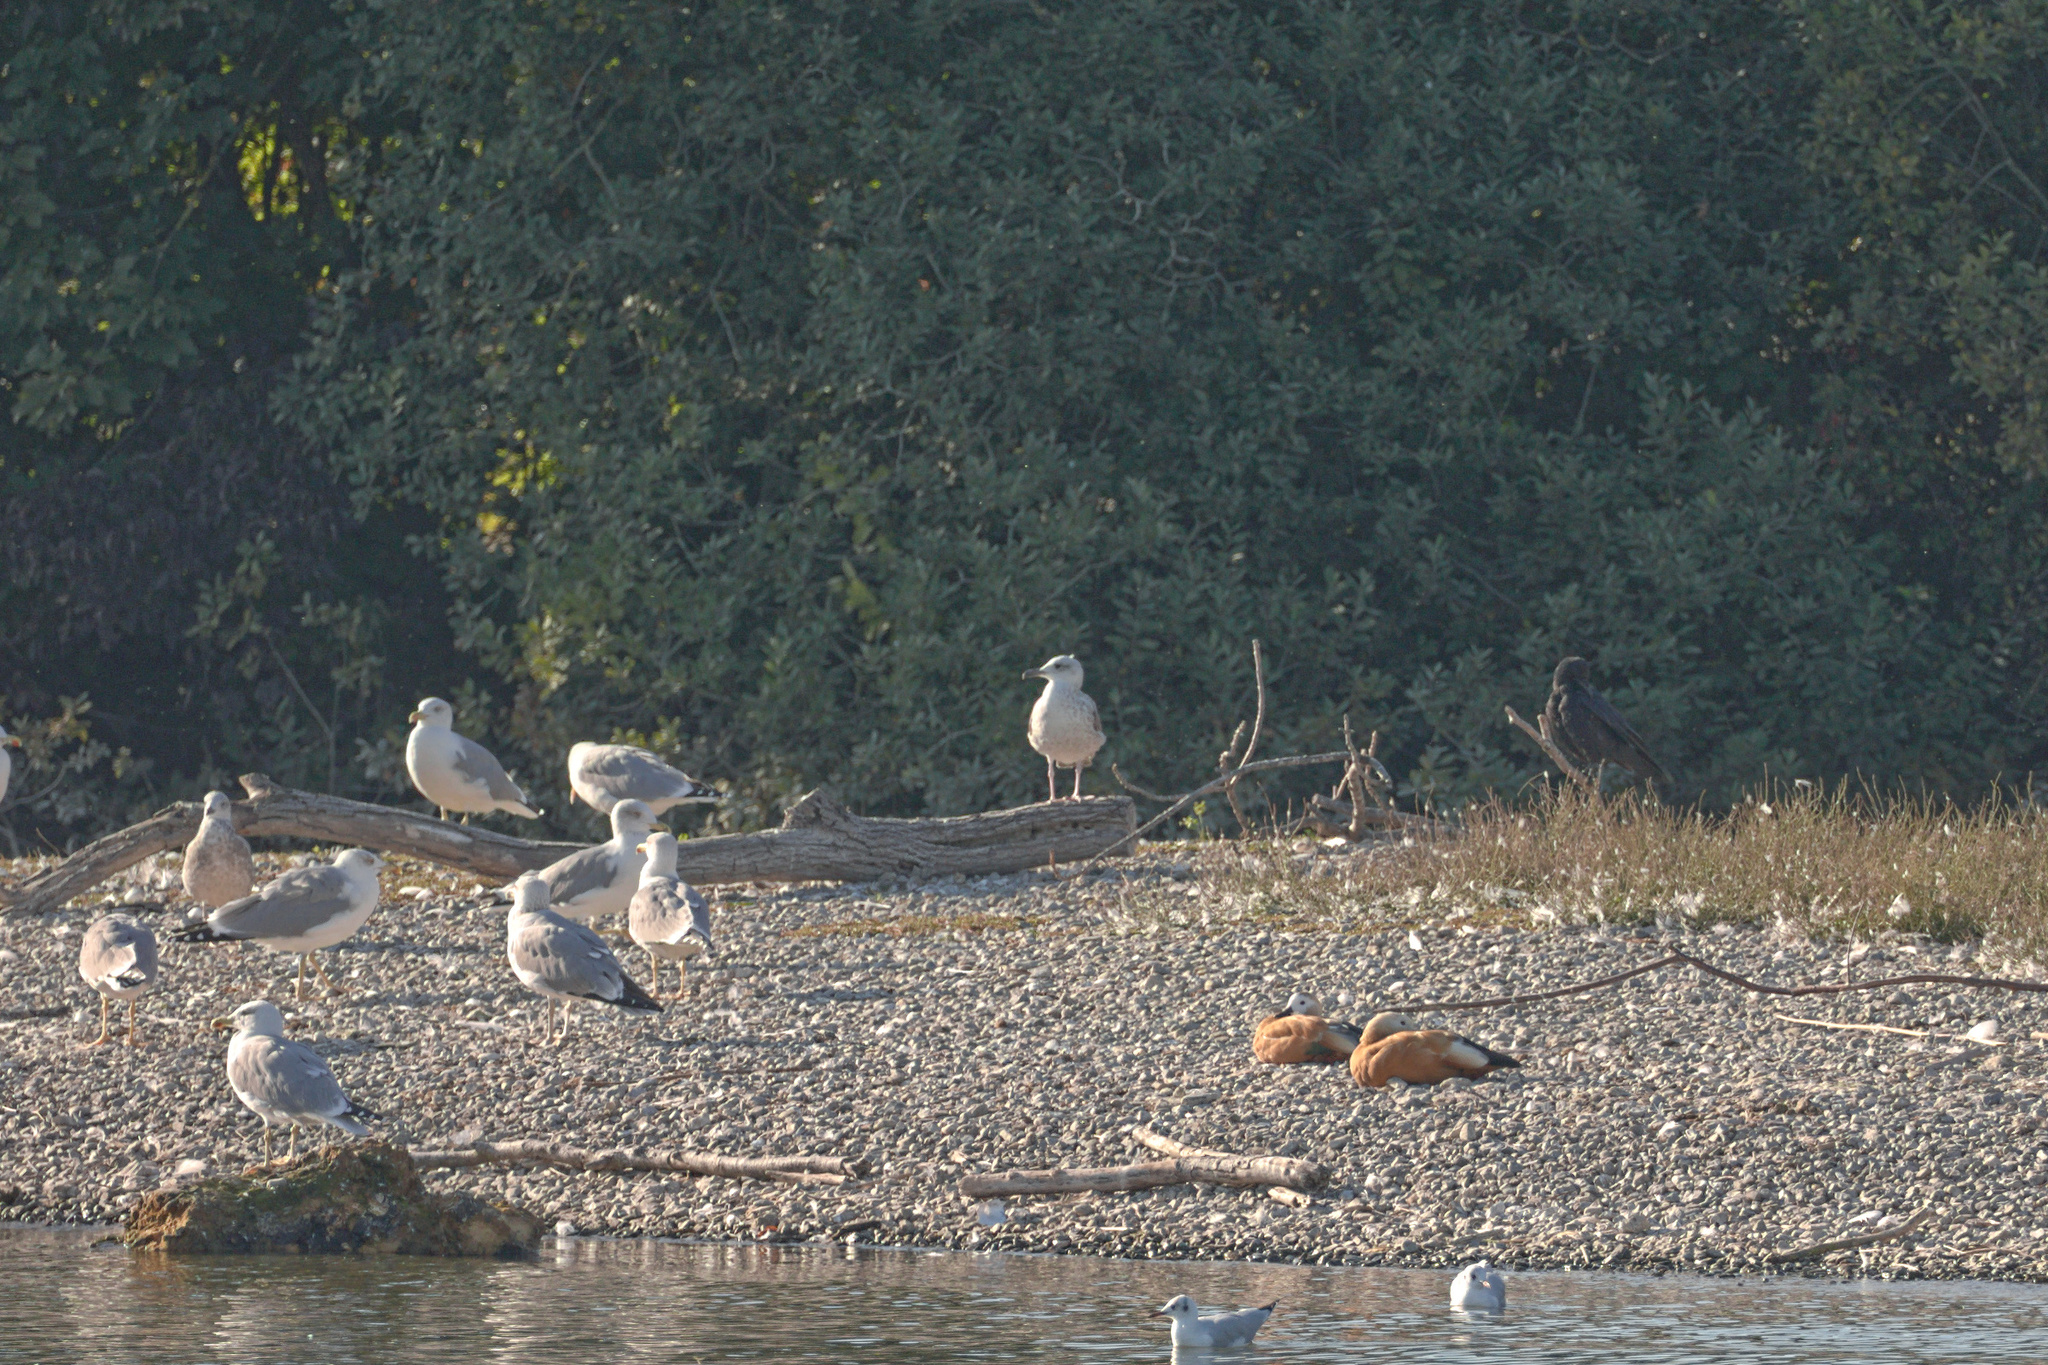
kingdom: Animalia
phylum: Chordata
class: Aves
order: Charadriiformes
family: Laridae
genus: Larus
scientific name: Larus michahellis
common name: Yellow-legged gull
